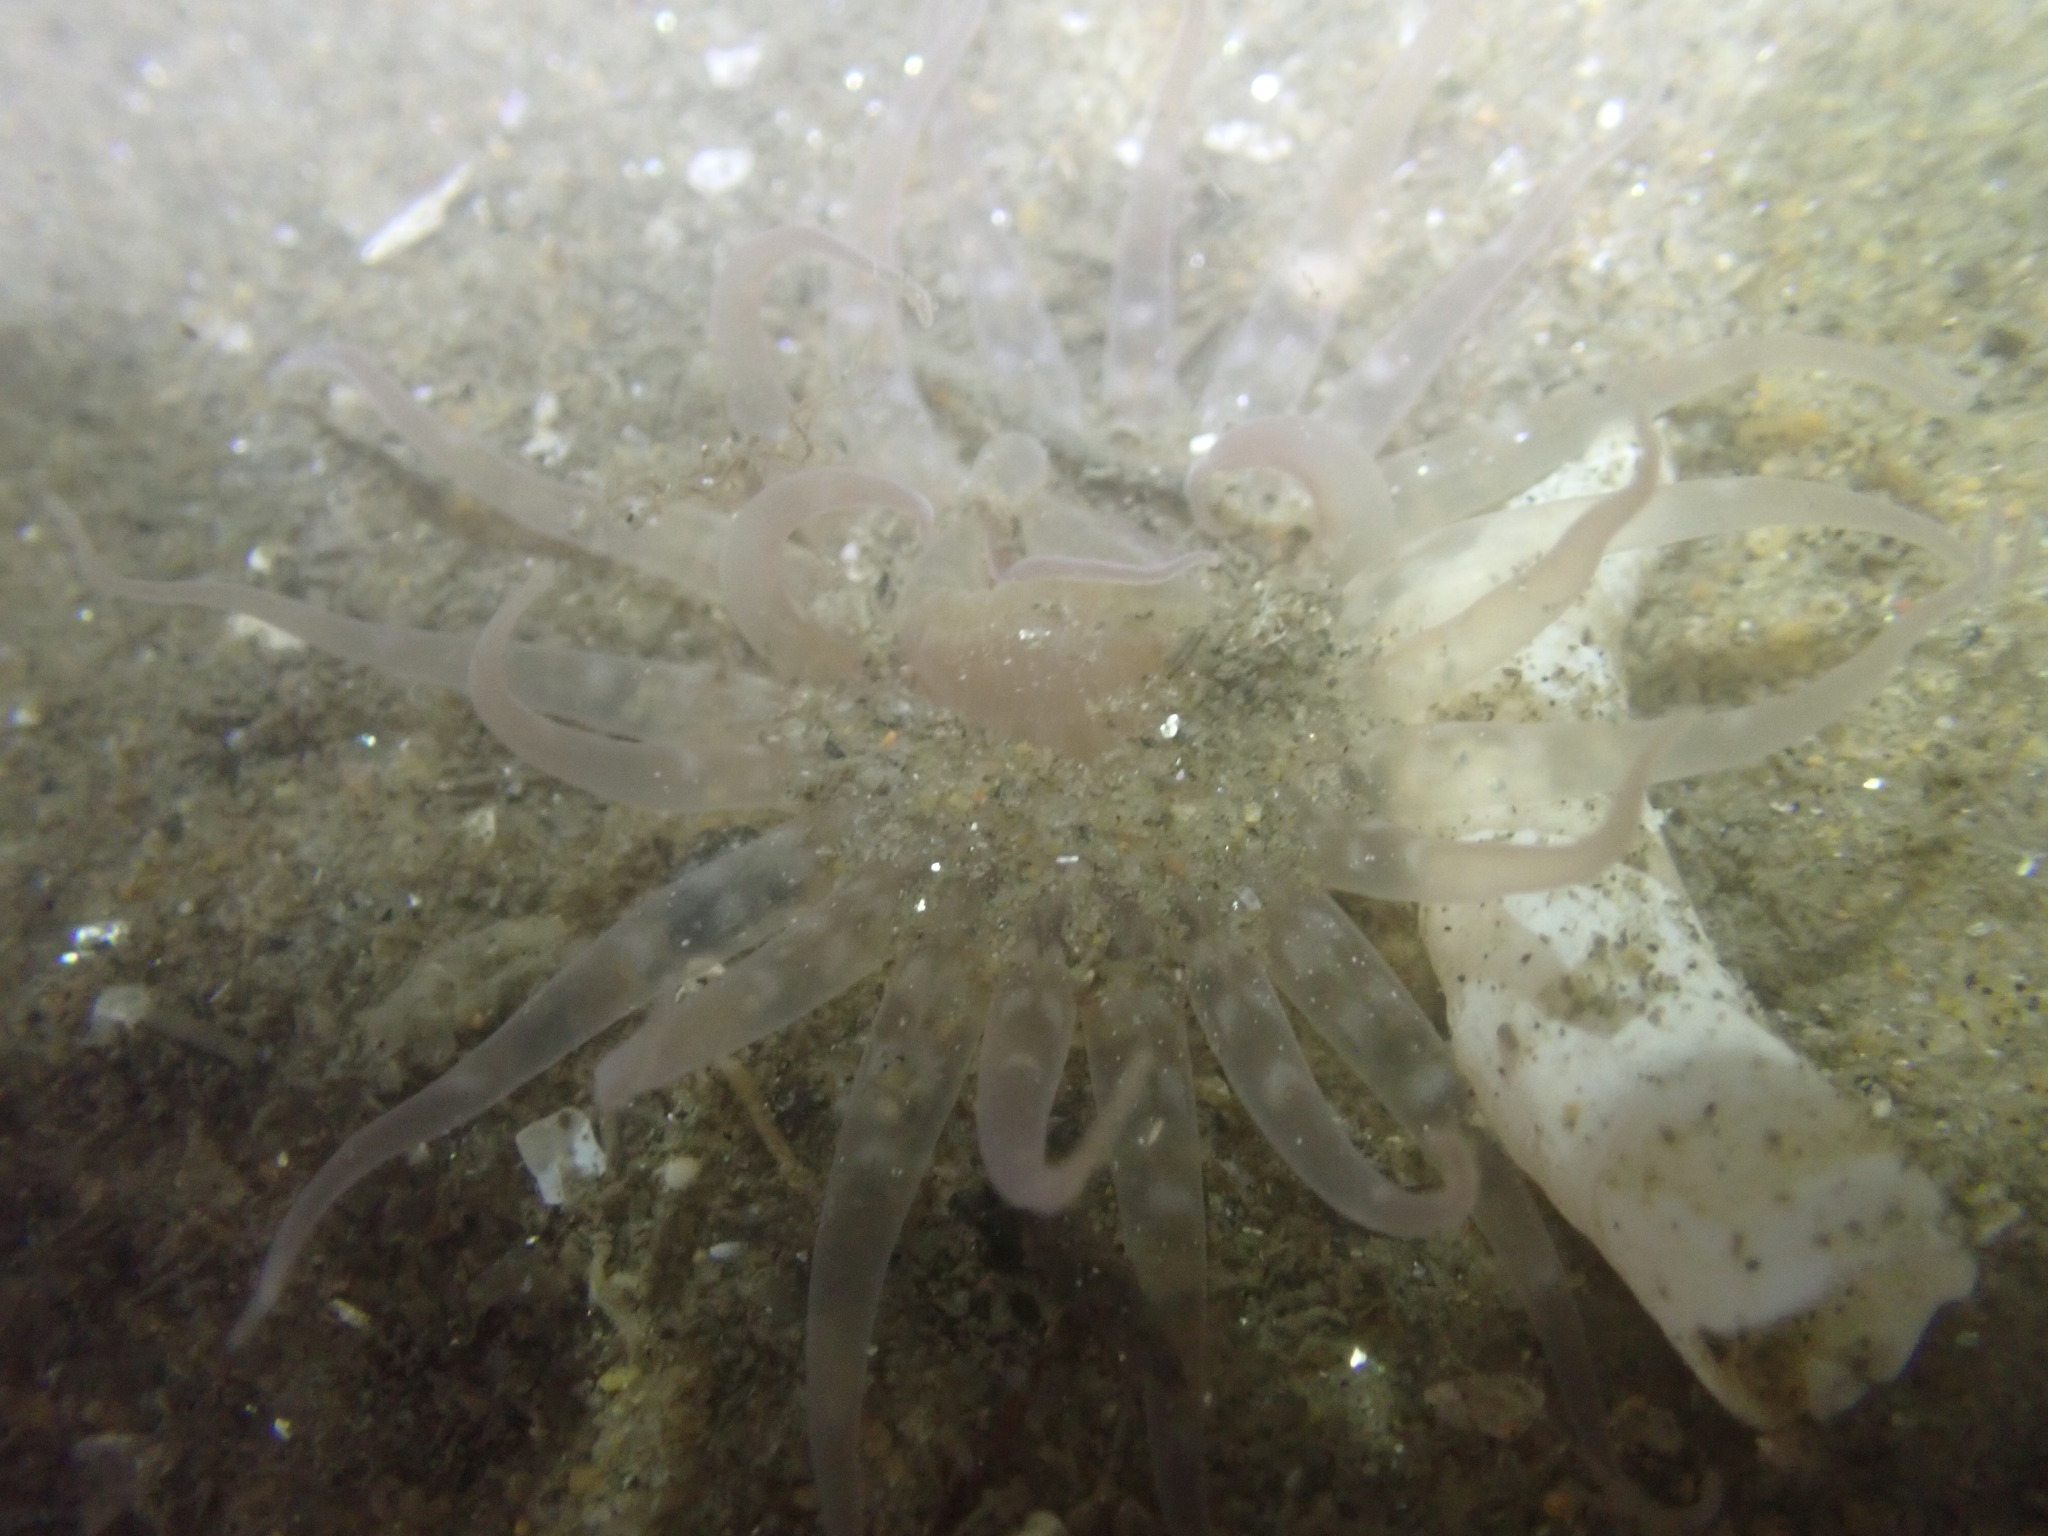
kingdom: Animalia
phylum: Cnidaria
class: Anthozoa
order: Actiniaria
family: Harenactidae
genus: Harenactis
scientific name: Harenactis attenuata
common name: Giant burrowing anemone
